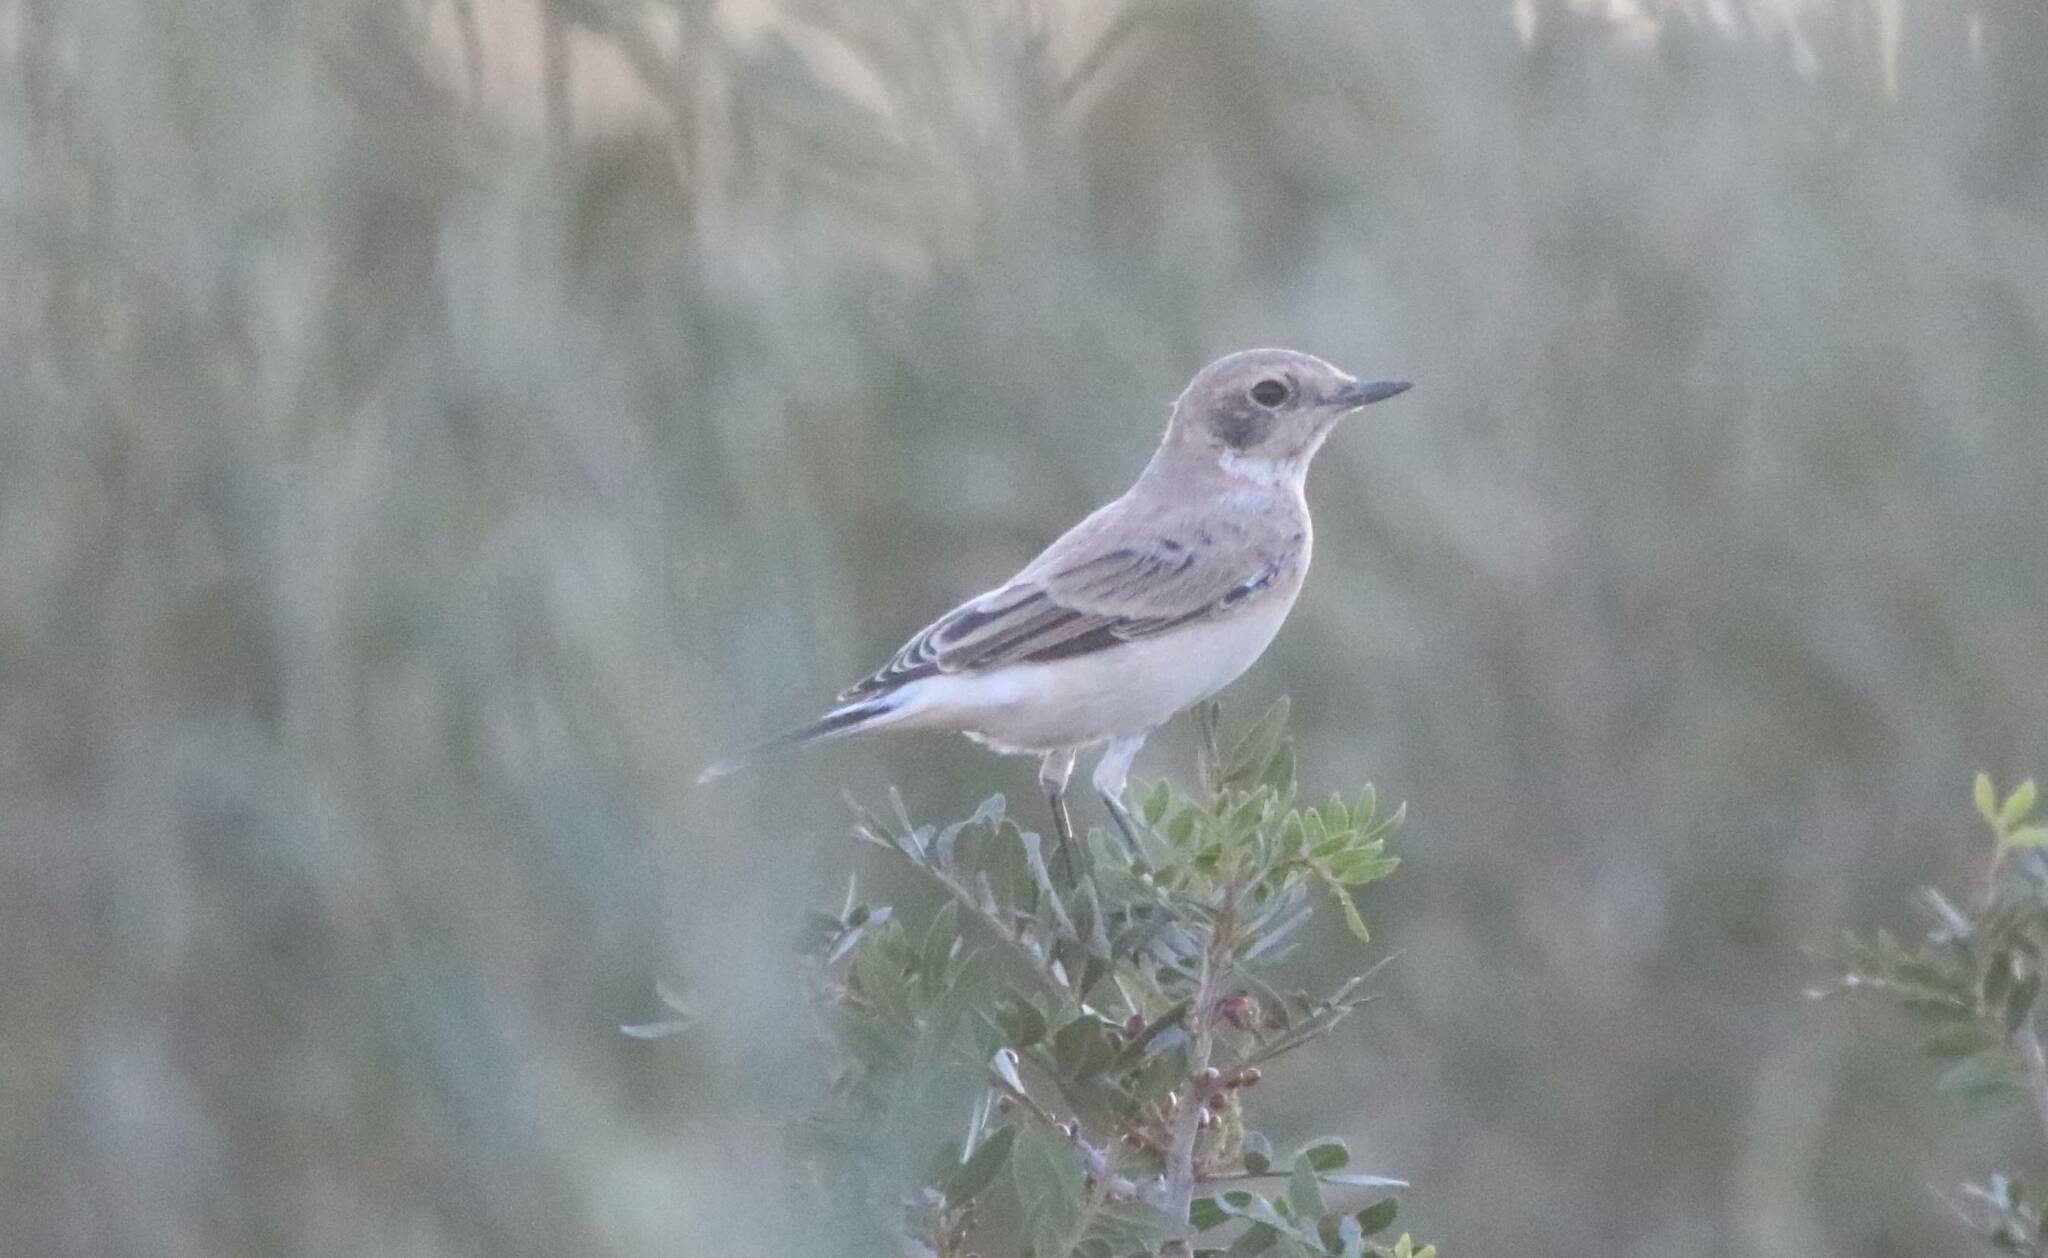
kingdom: Animalia
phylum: Chordata
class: Aves
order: Passeriformes
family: Muscicapidae
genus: Oenanthe
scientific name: Oenanthe hispanica
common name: Black-eared wheatear
